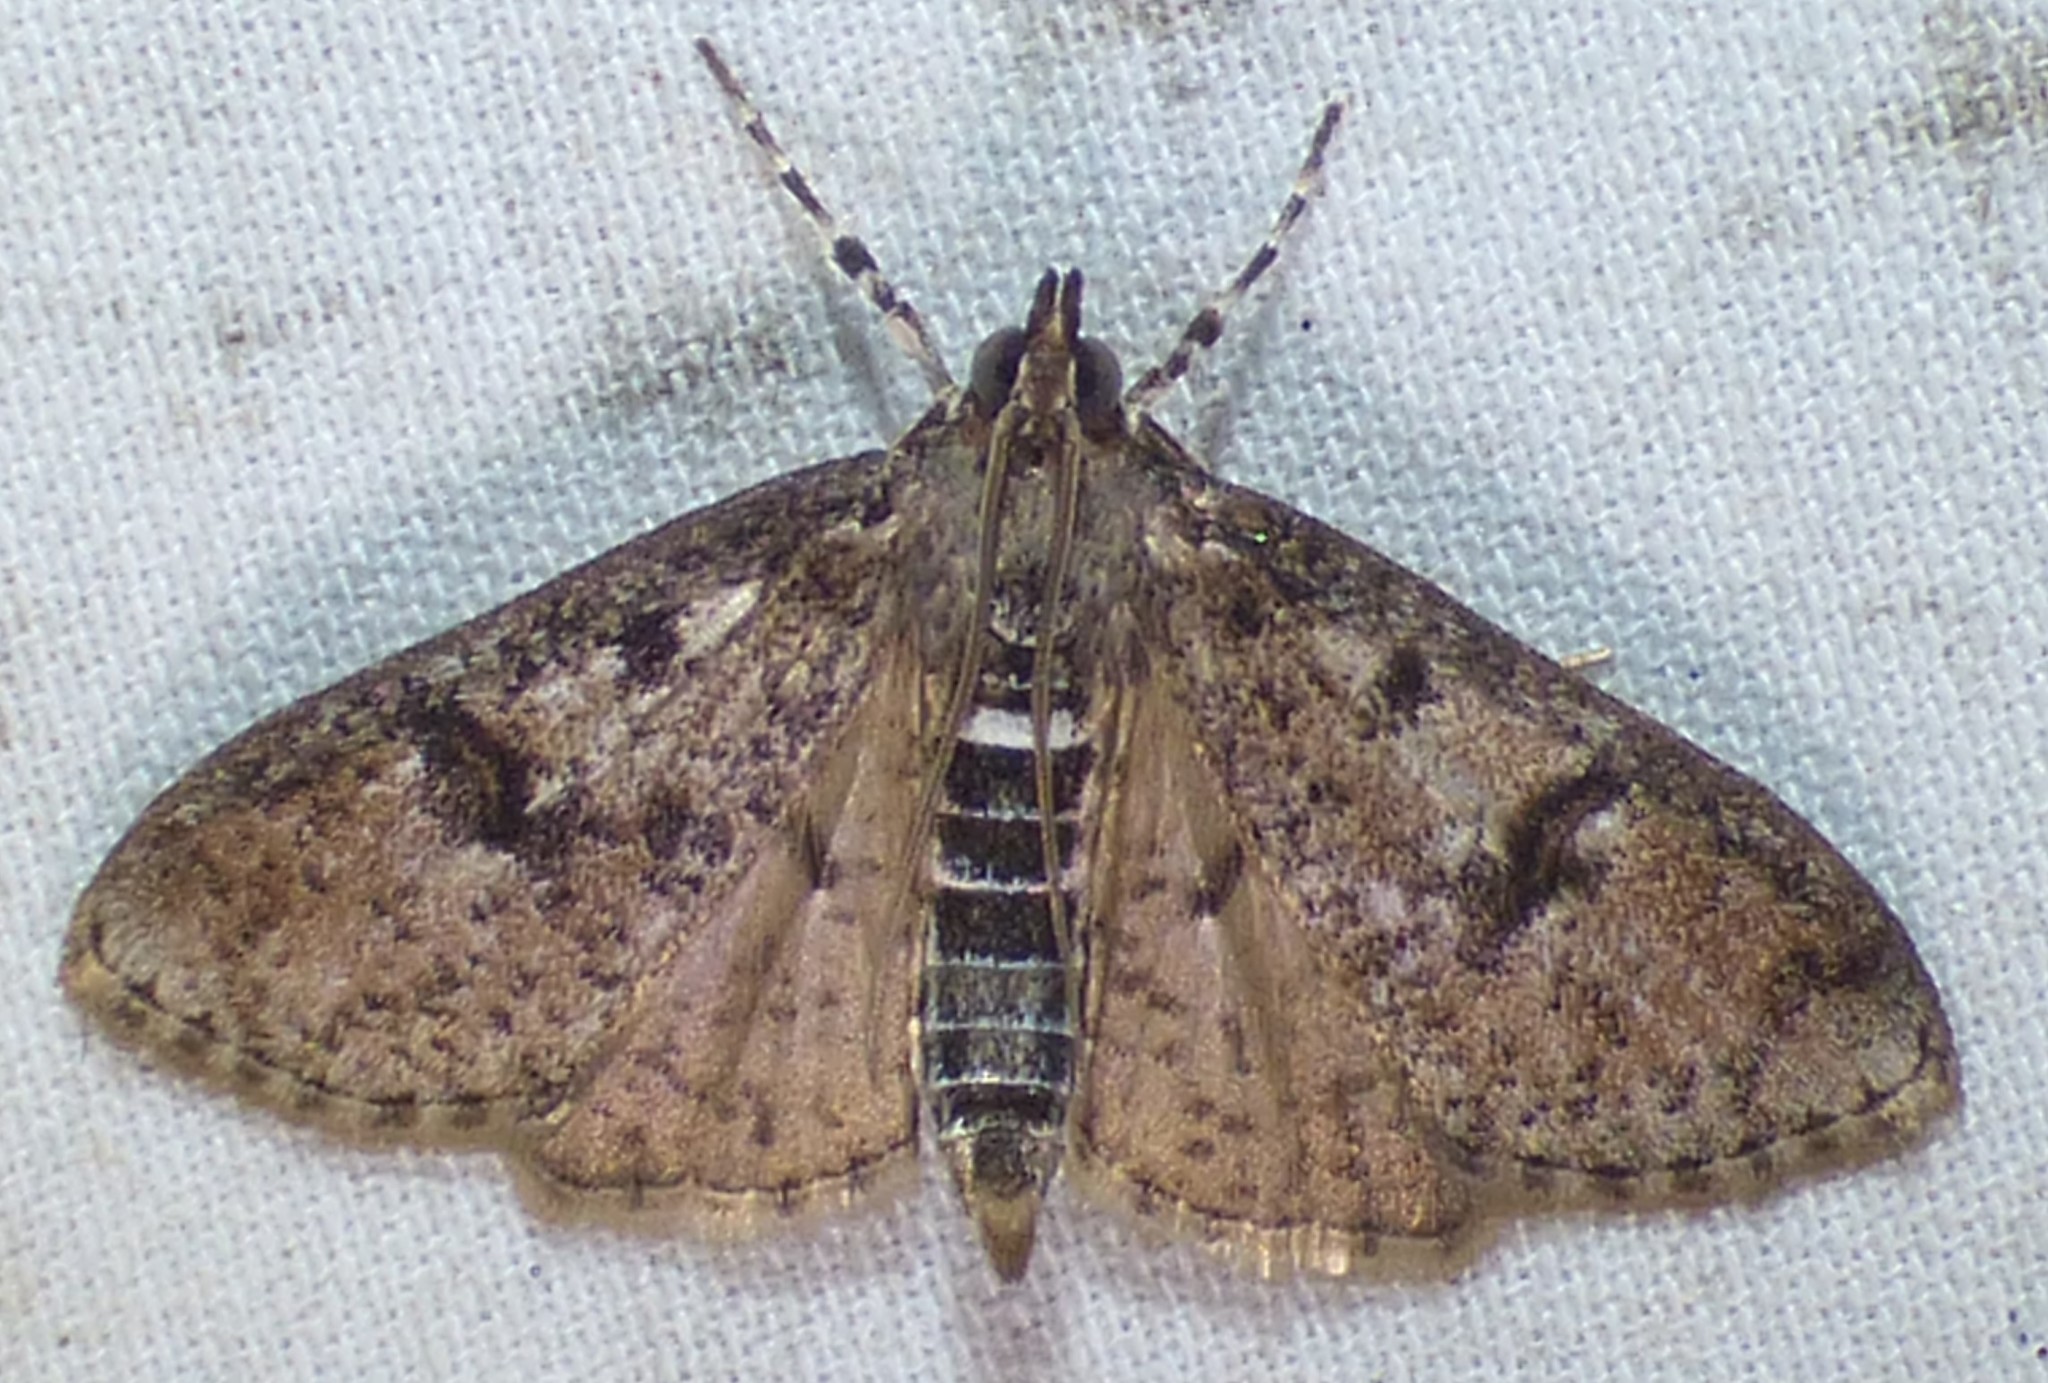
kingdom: Animalia
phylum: Arthropoda
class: Insecta
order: Lepidoptera
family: Crambidae
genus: Palpita
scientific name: Palpita magniferalis
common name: Splendid palpita moth
